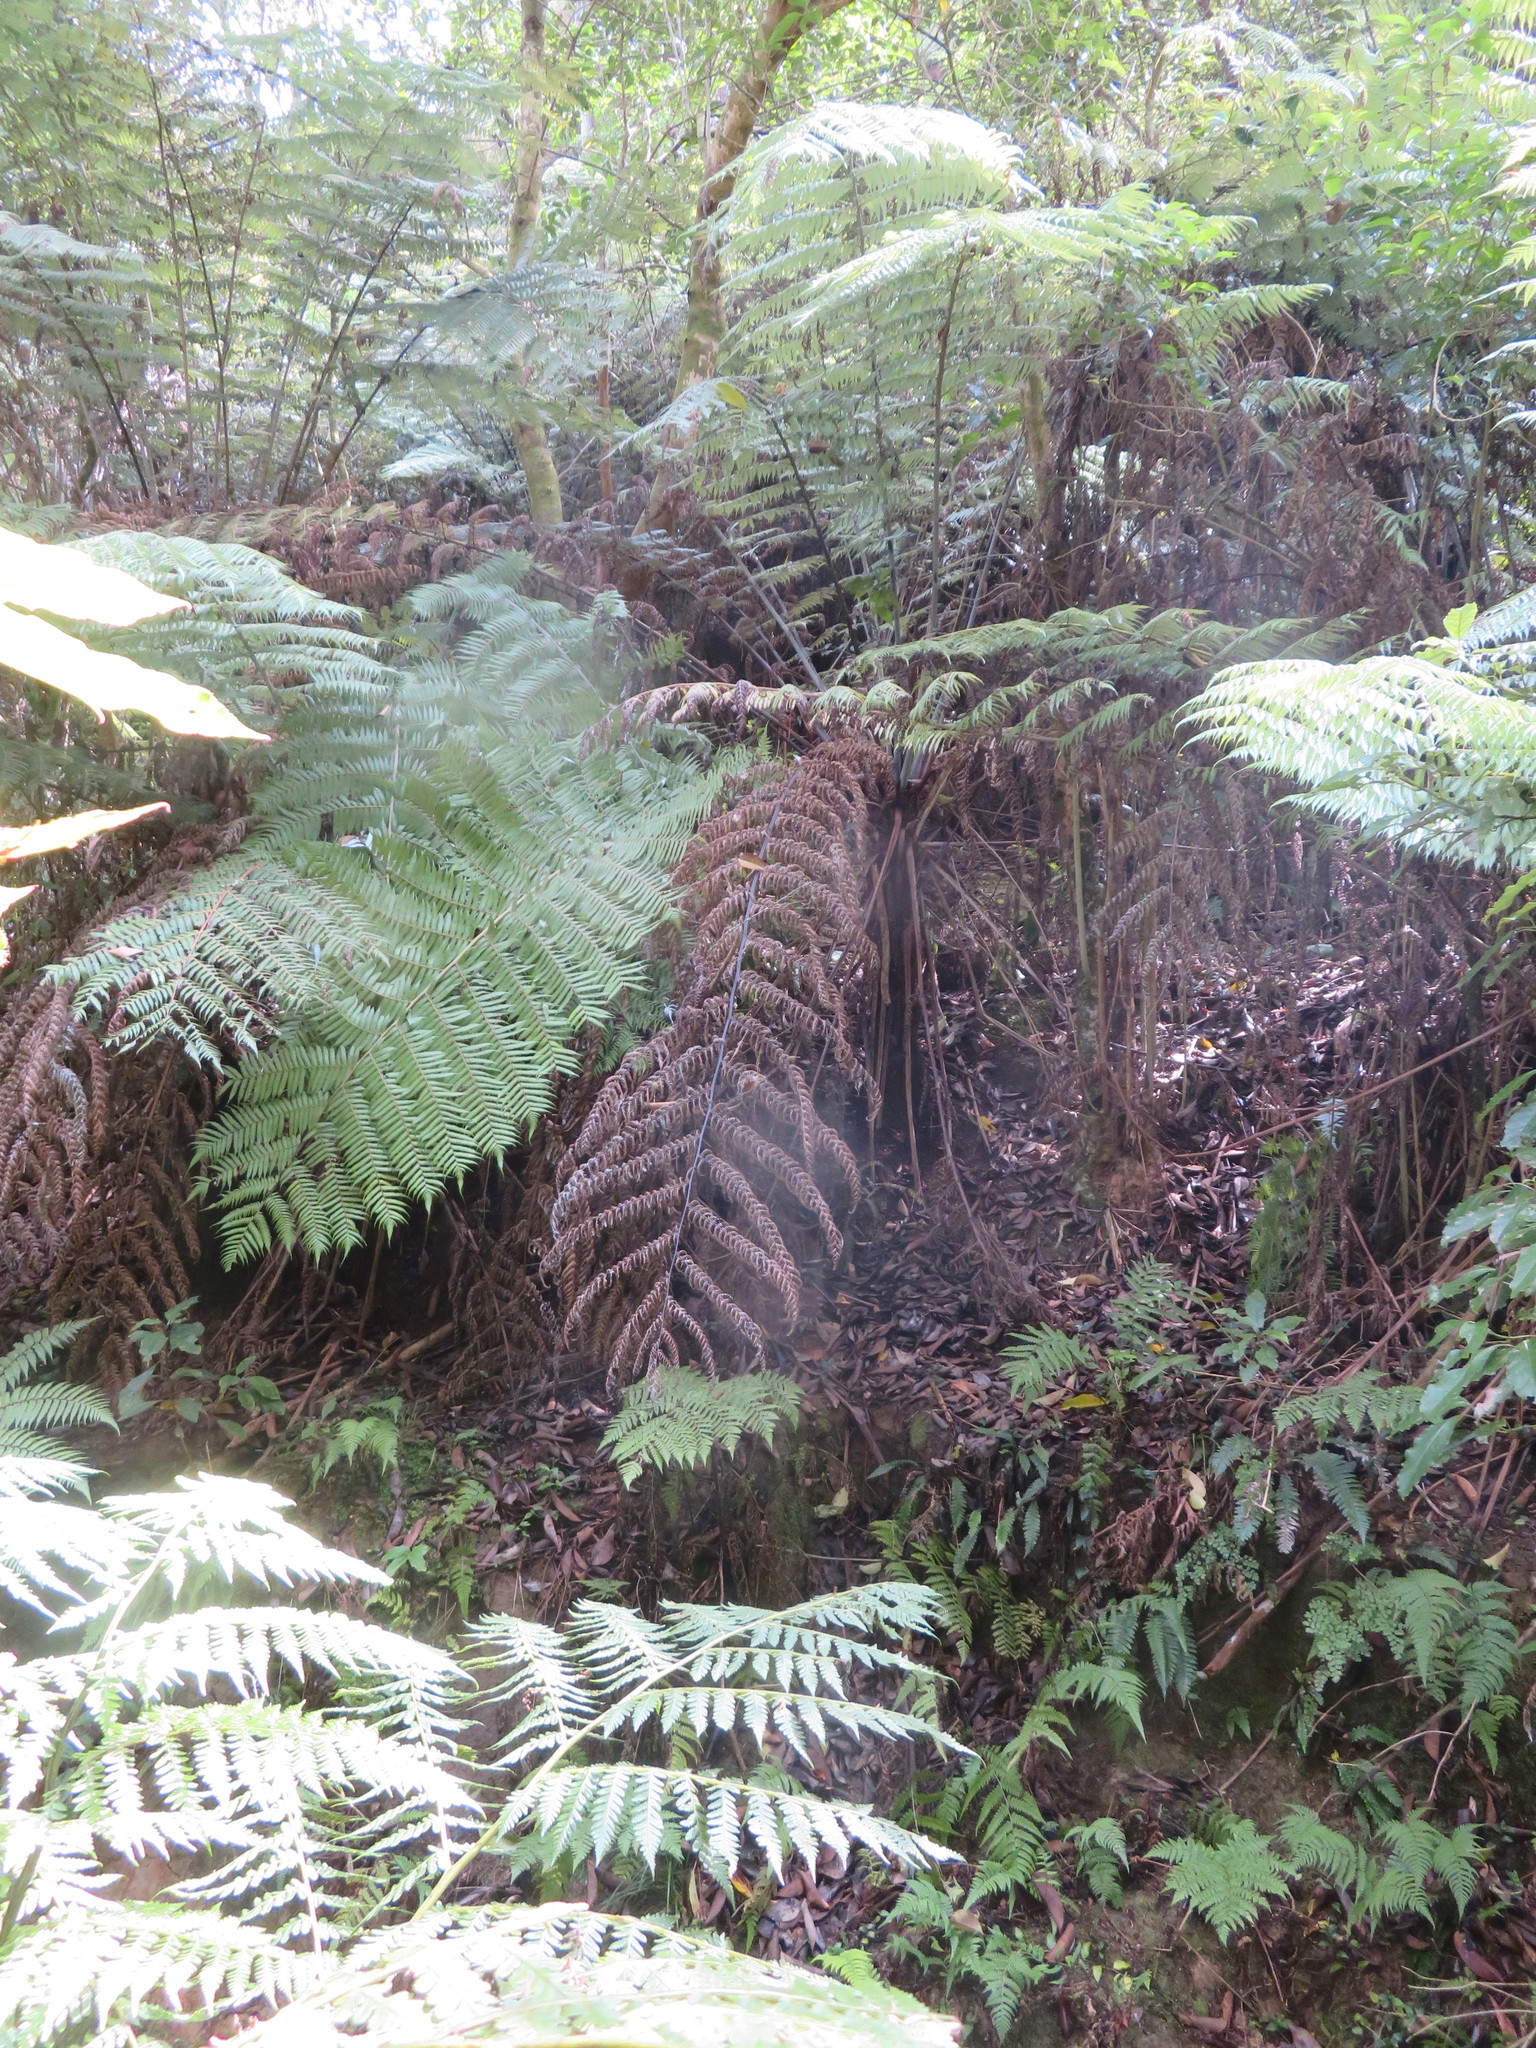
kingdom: Plantae
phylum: Tracheophyta
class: Polypodiopsida
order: Cyatheales
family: Cyatheaceae
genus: Alsophila
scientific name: Alsophila dealbata
